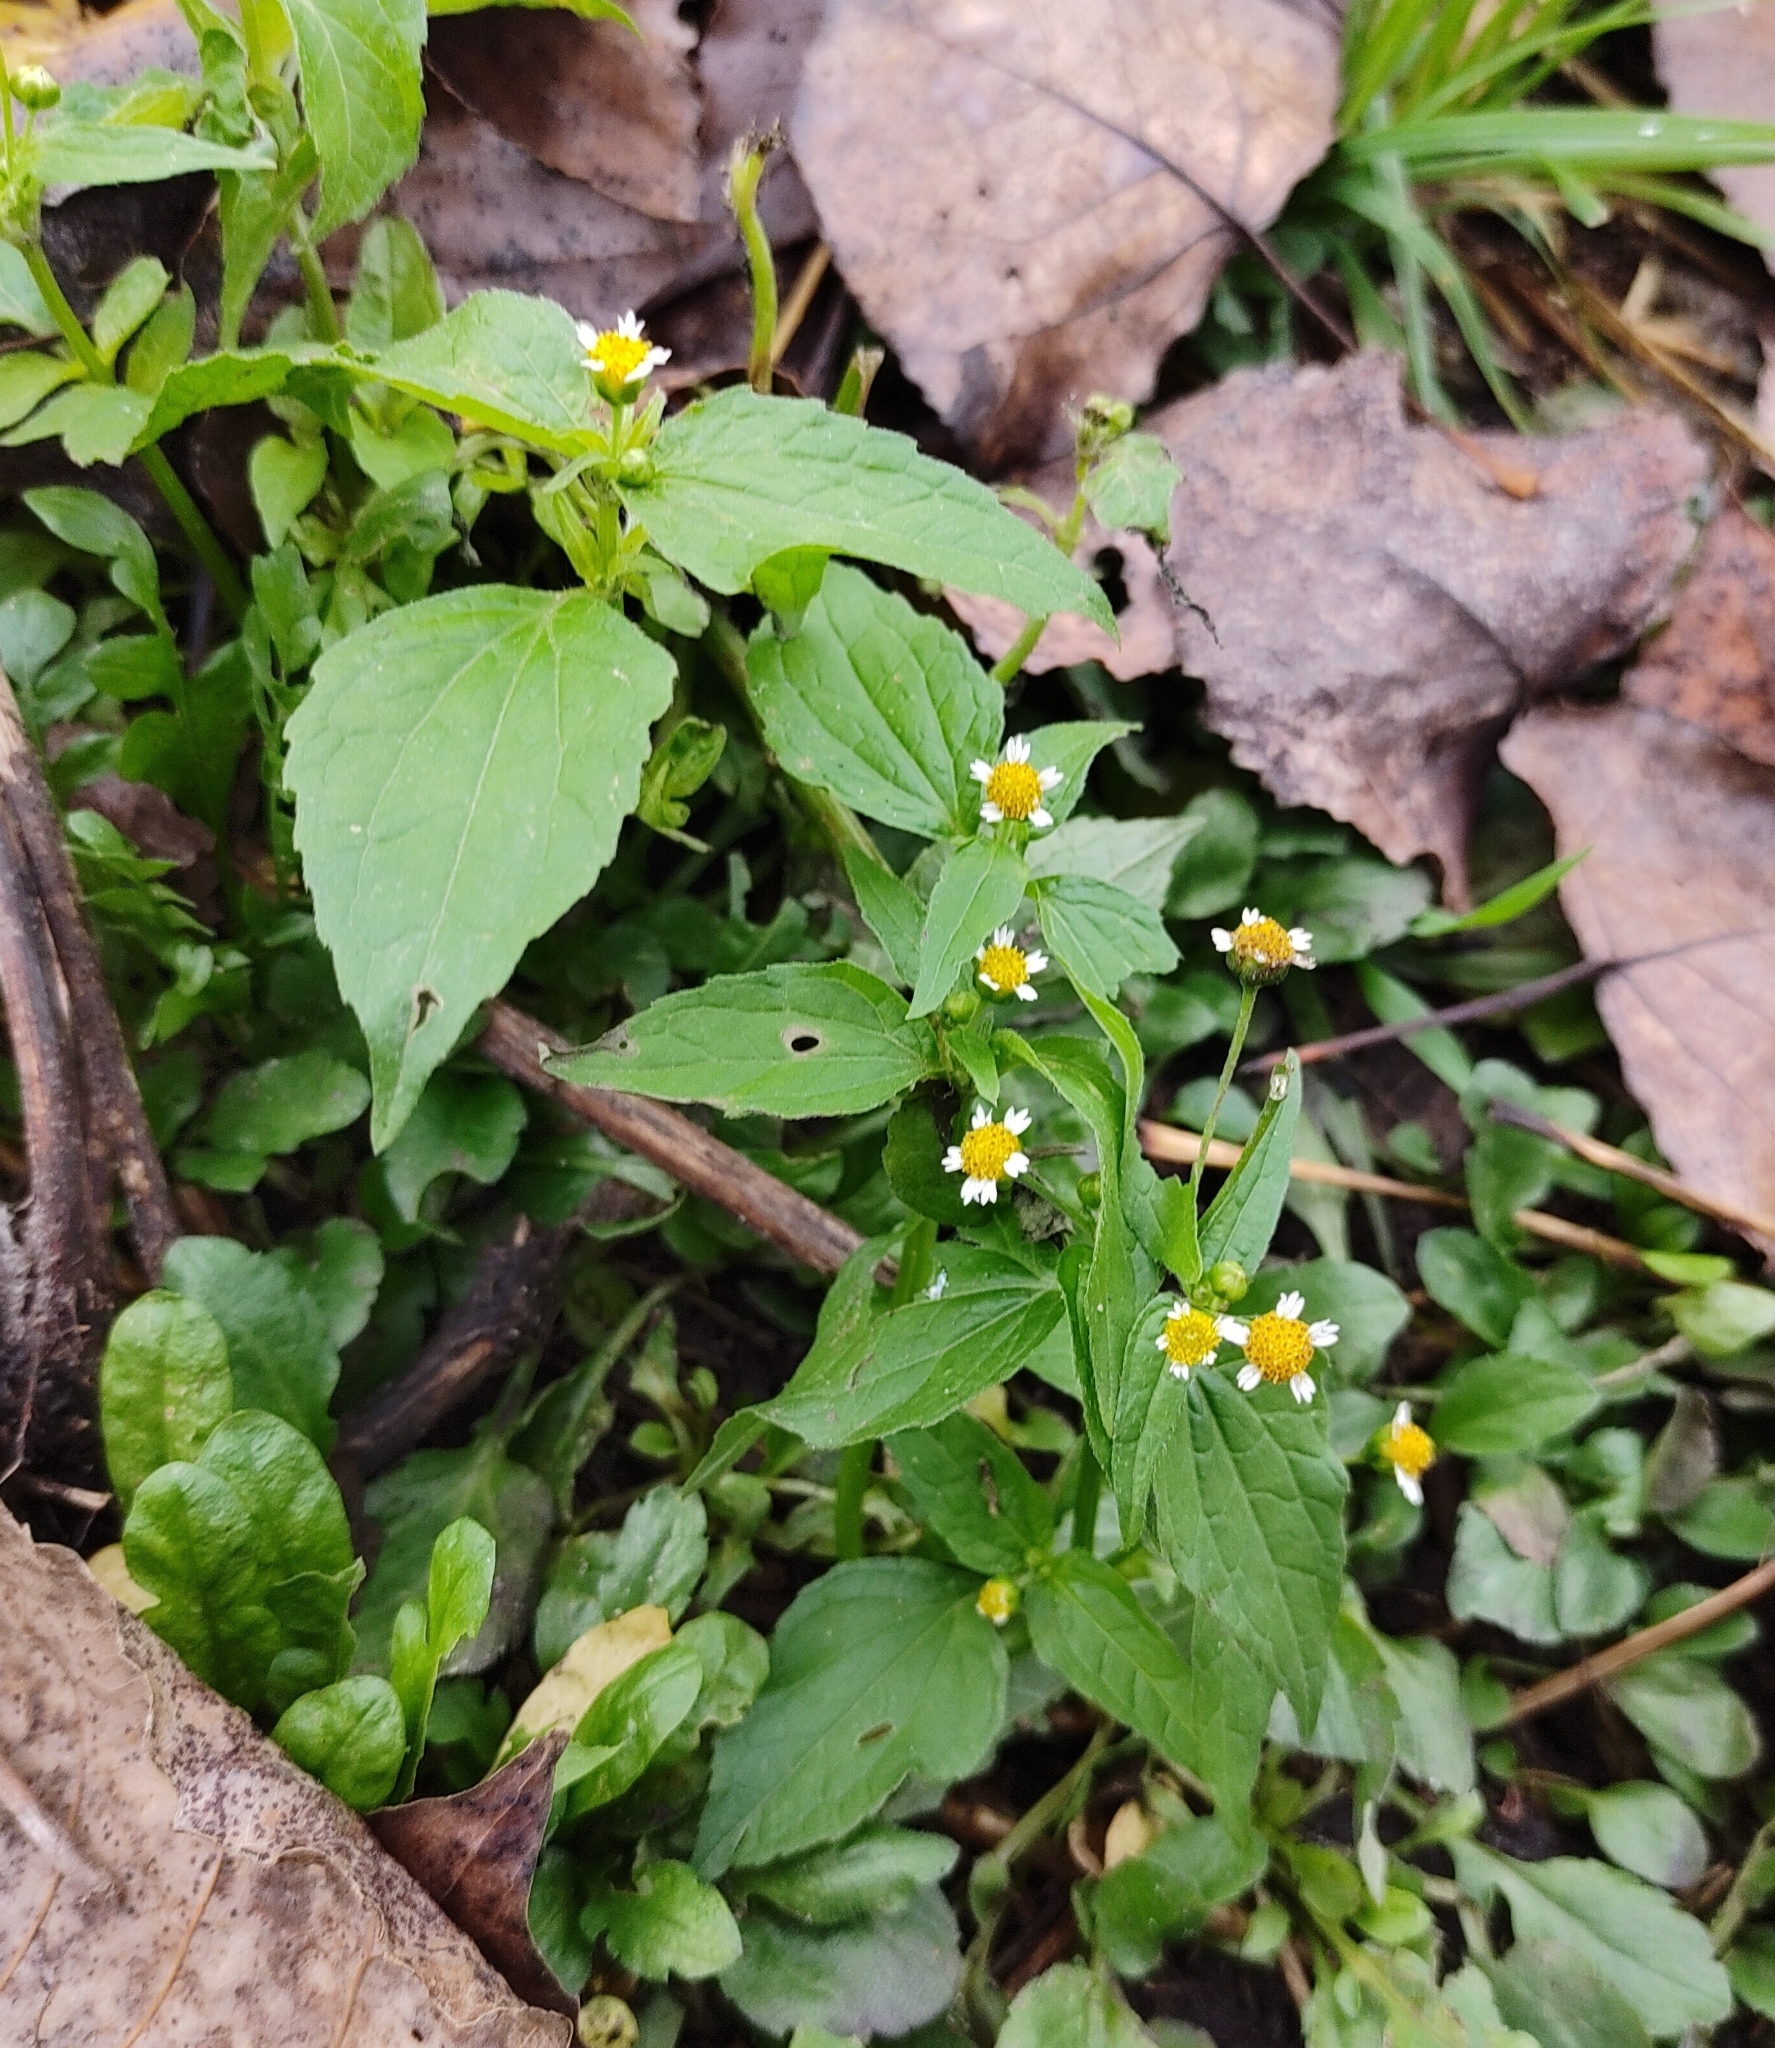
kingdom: Plantae
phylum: Tracheophyta
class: Magnoliopsida
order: Asterales
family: Asteraceae
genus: Galinsoga
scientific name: Galinsoga parviflora
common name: Gallant soldier
